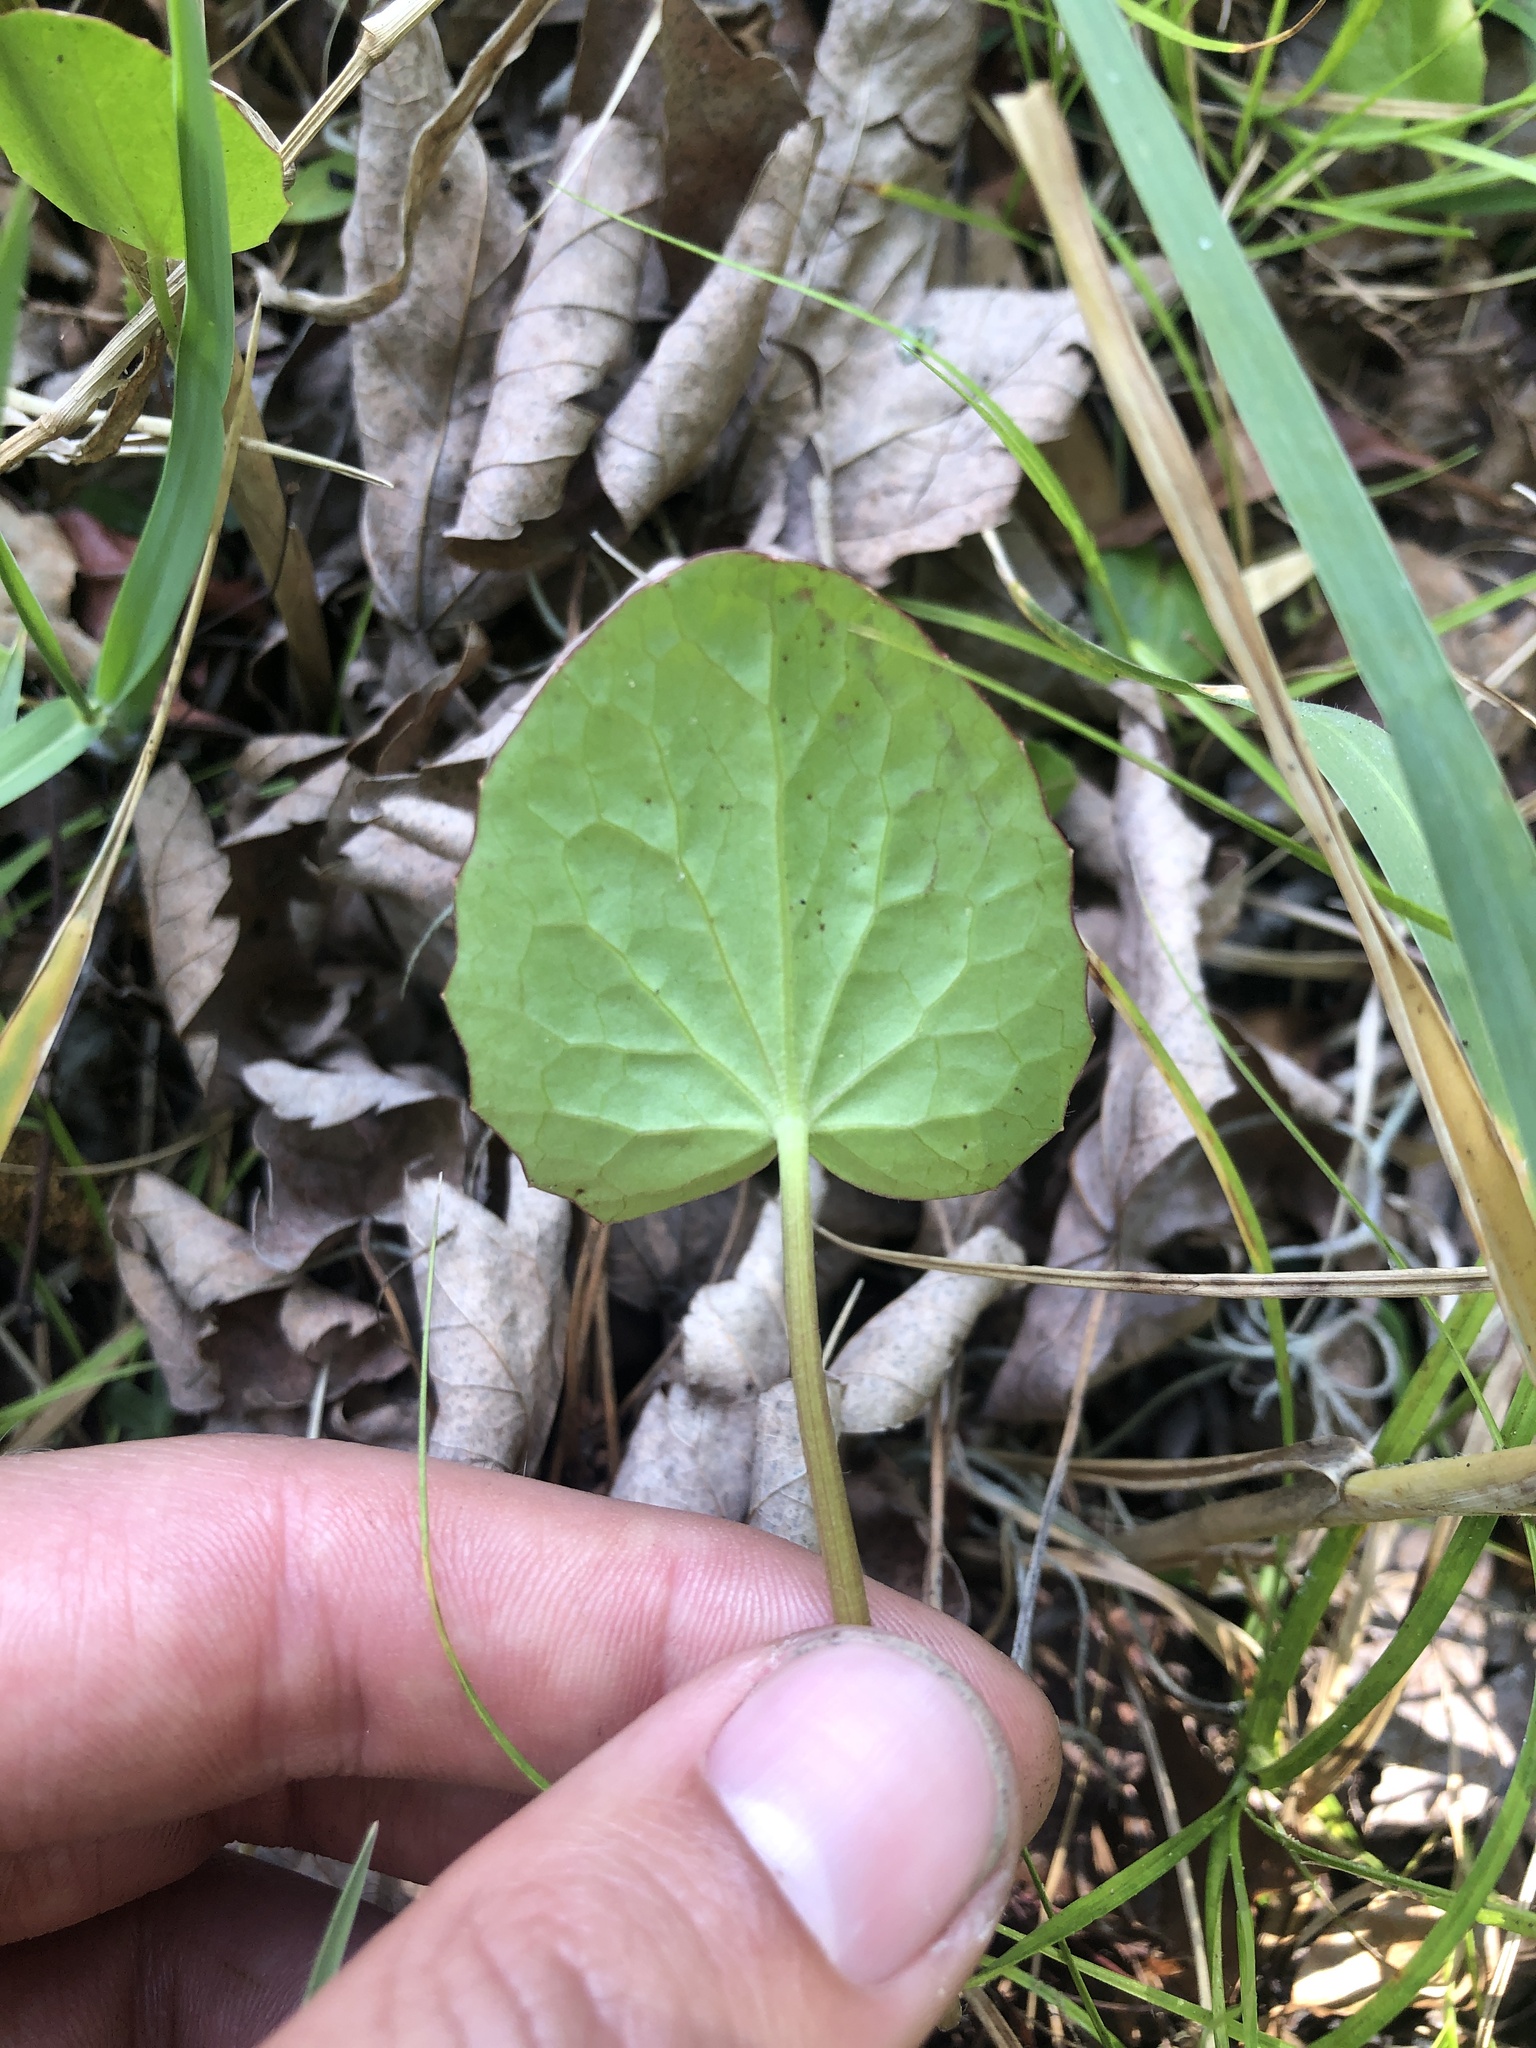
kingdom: Plantae
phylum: Tracheophyta
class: Magnoliopsida
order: Apiales
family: Apiaceae
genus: Centella
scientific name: Centella erecta
